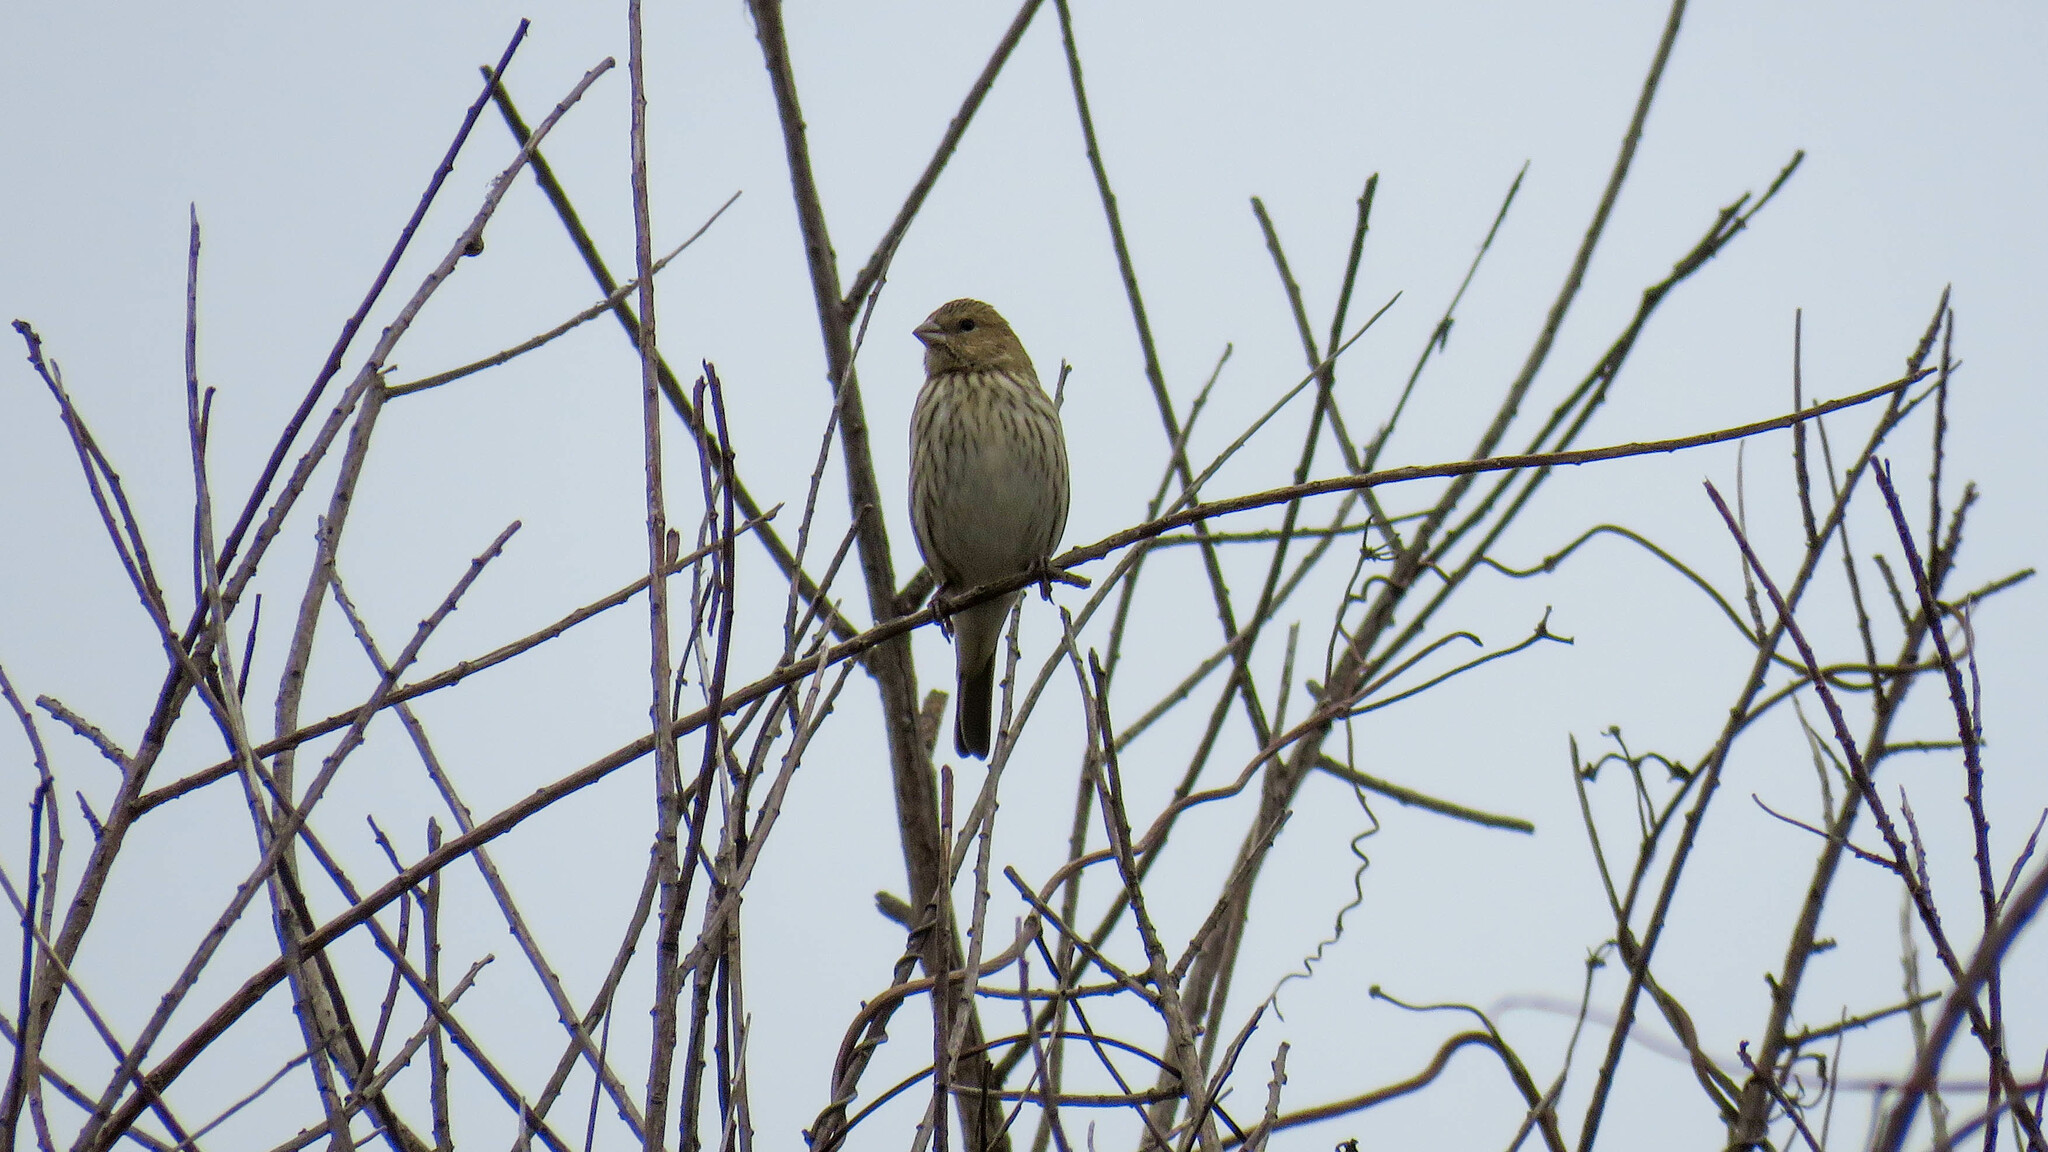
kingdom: Animalia
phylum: Chordata
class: Aves
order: Passeriformes
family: Thraupidae
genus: Sicalis
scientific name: Sicalis flaveola
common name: Saffron finch
